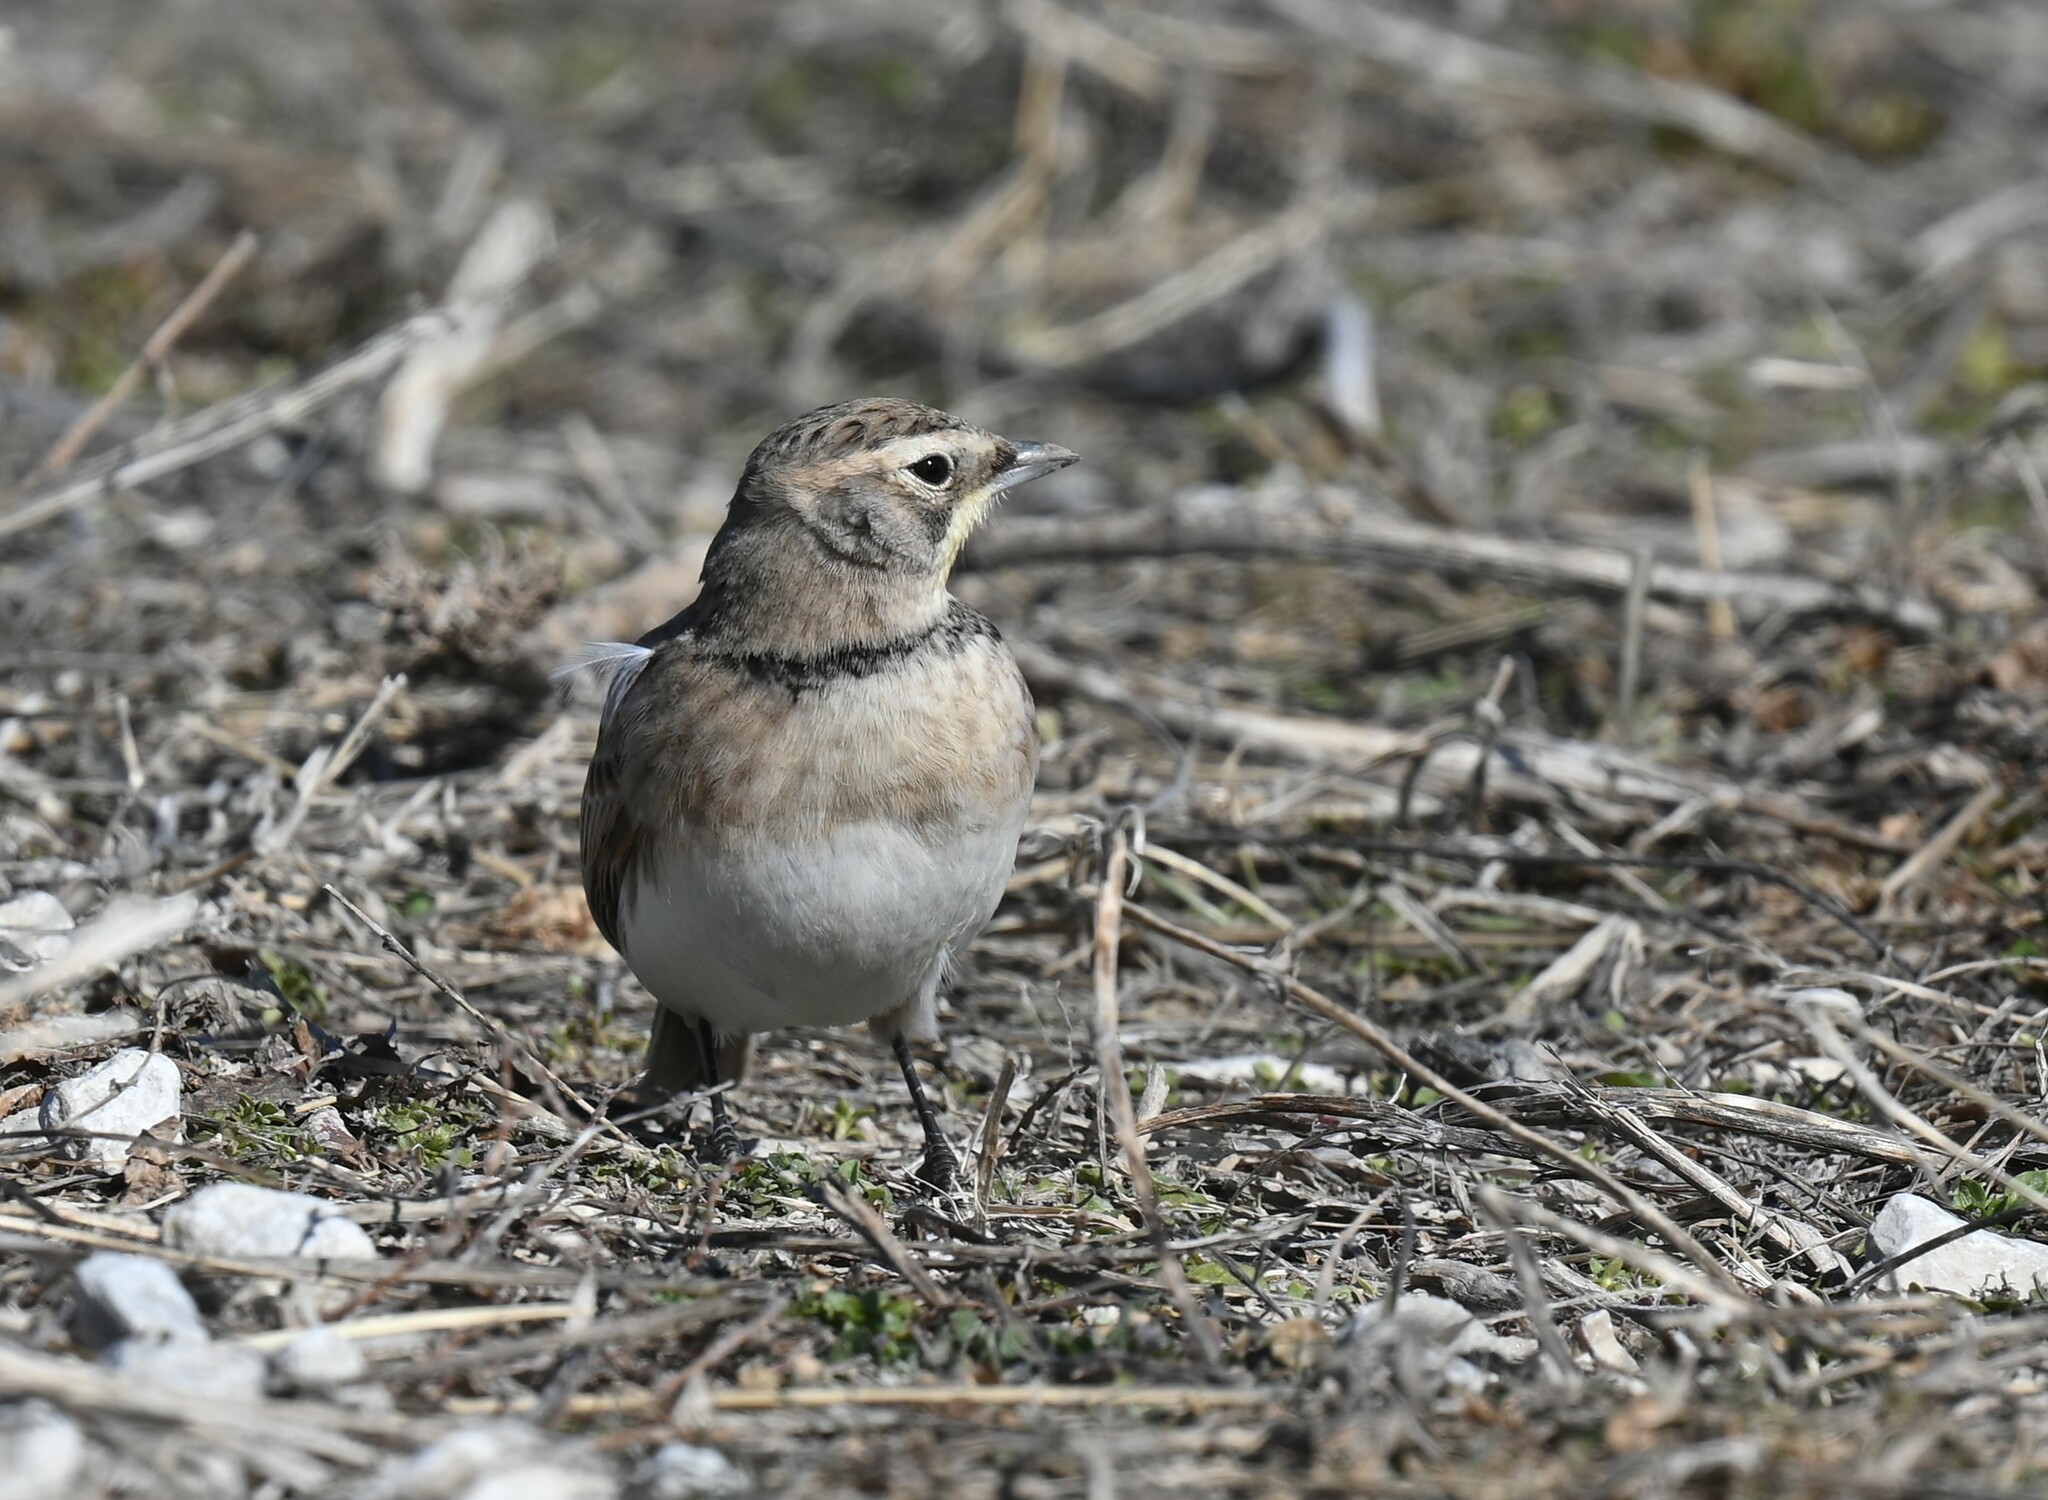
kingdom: Animalia
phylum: Chordata
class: Aves
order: Passeriformes
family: Alaudidae
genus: Eremophila
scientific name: Eremophila alpestris
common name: Horned lark
